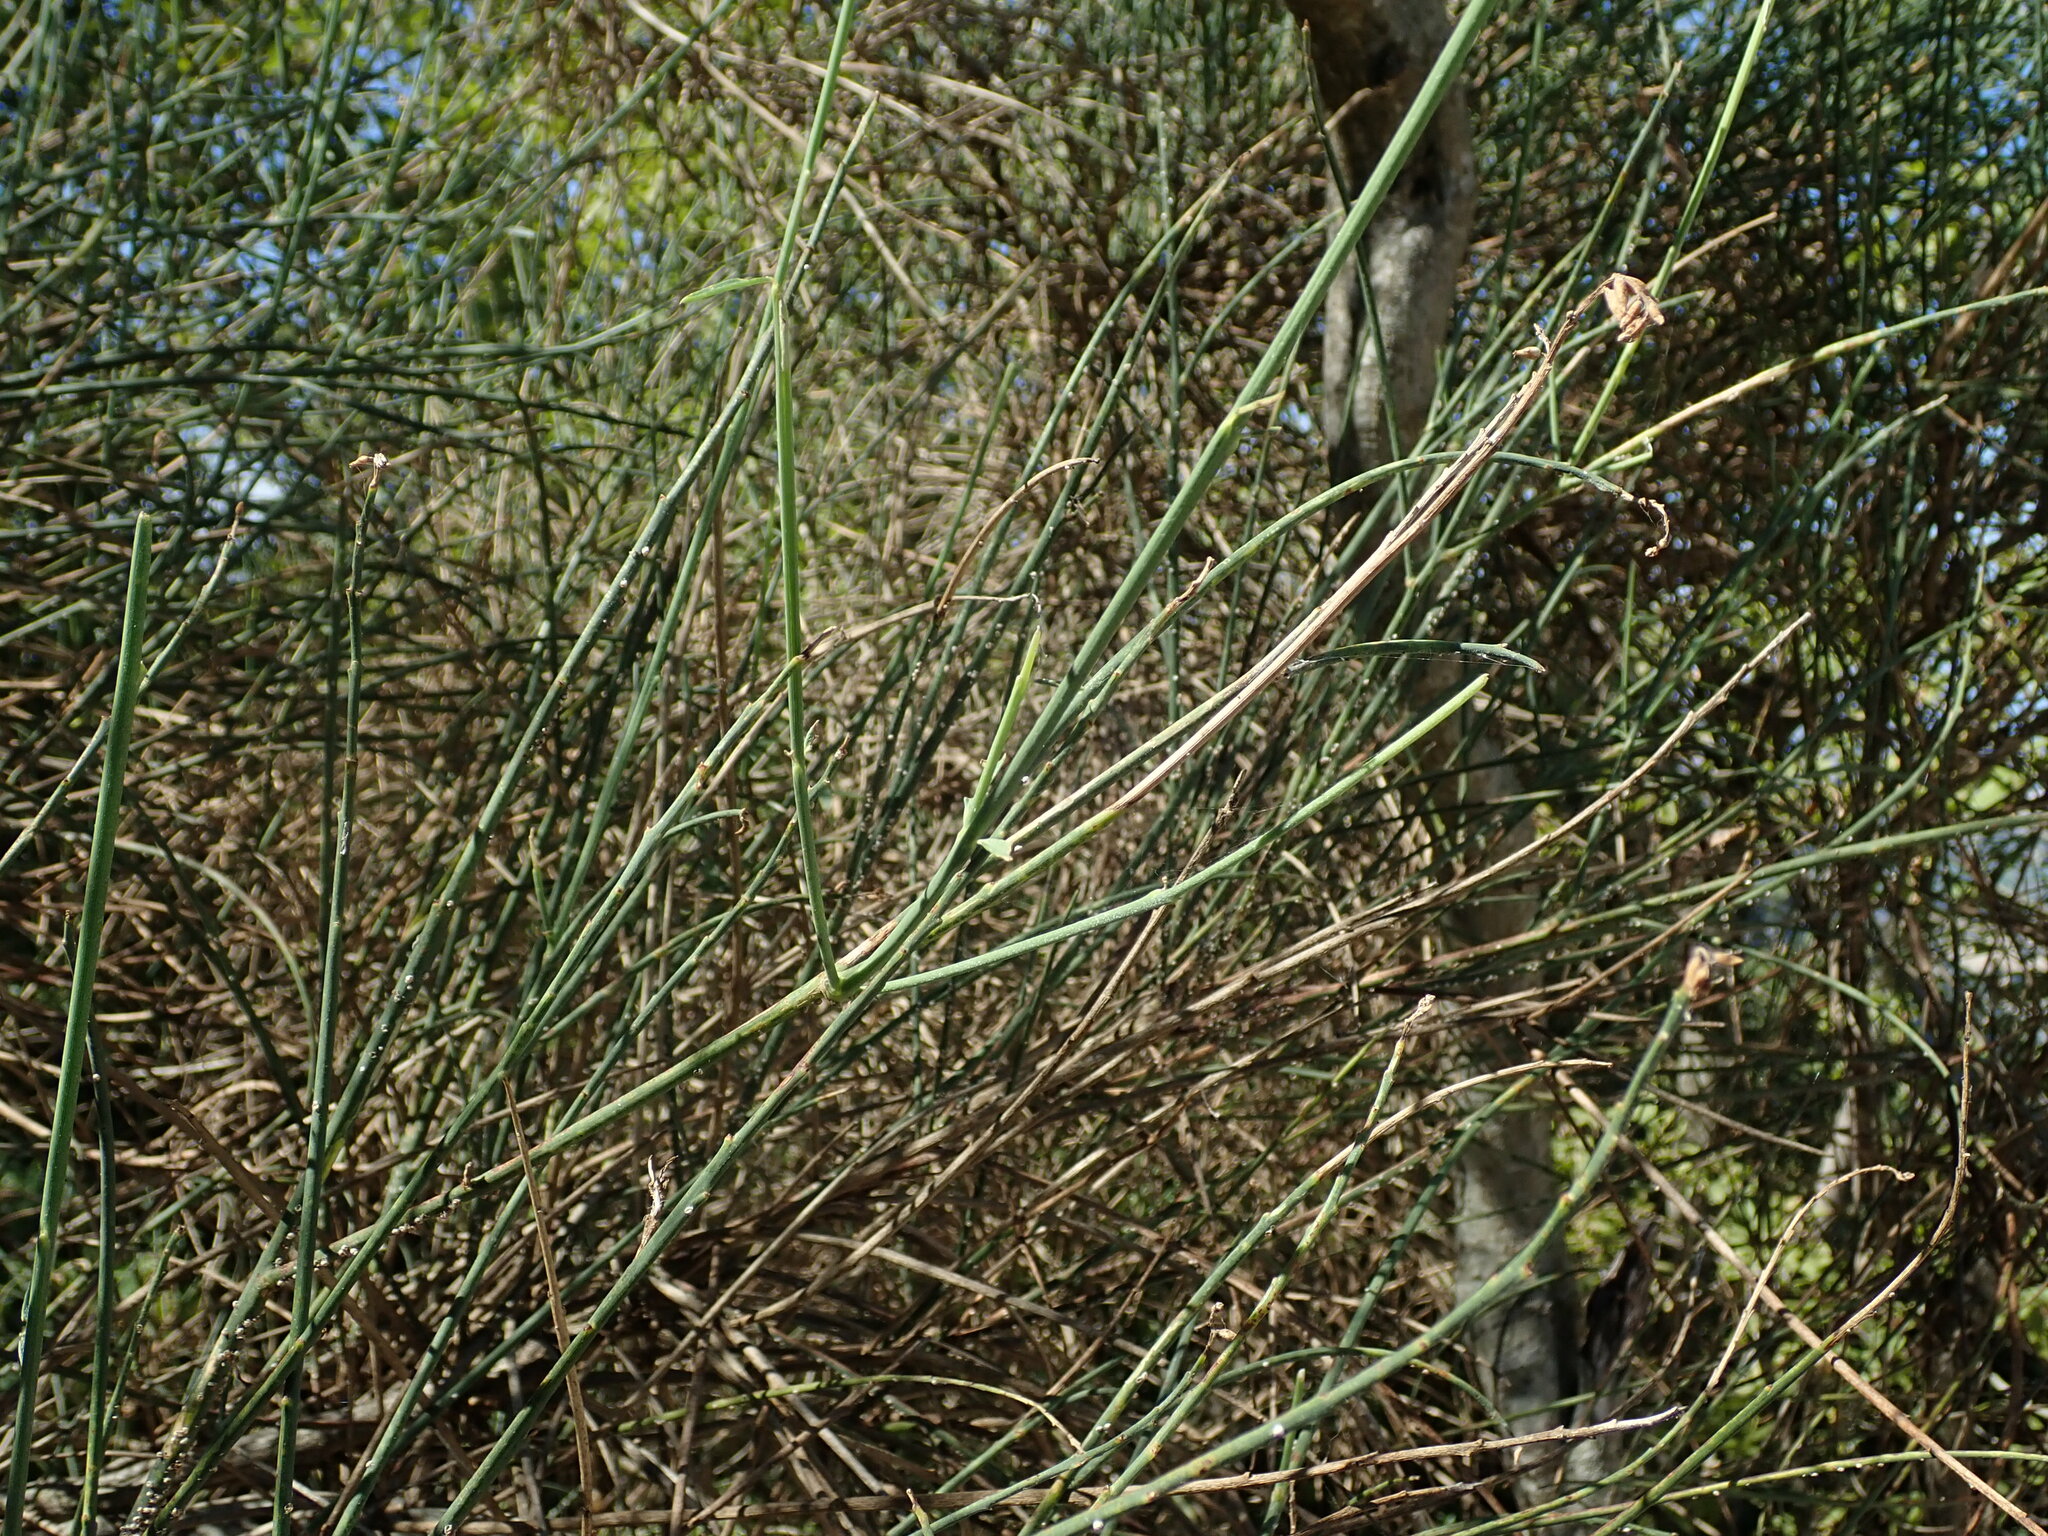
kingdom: Plantae
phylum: Tracheophyta
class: Magnoliopsida
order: Fabales
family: Fabaceae
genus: Spartium
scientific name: Spartium junceum
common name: Spanish broom
